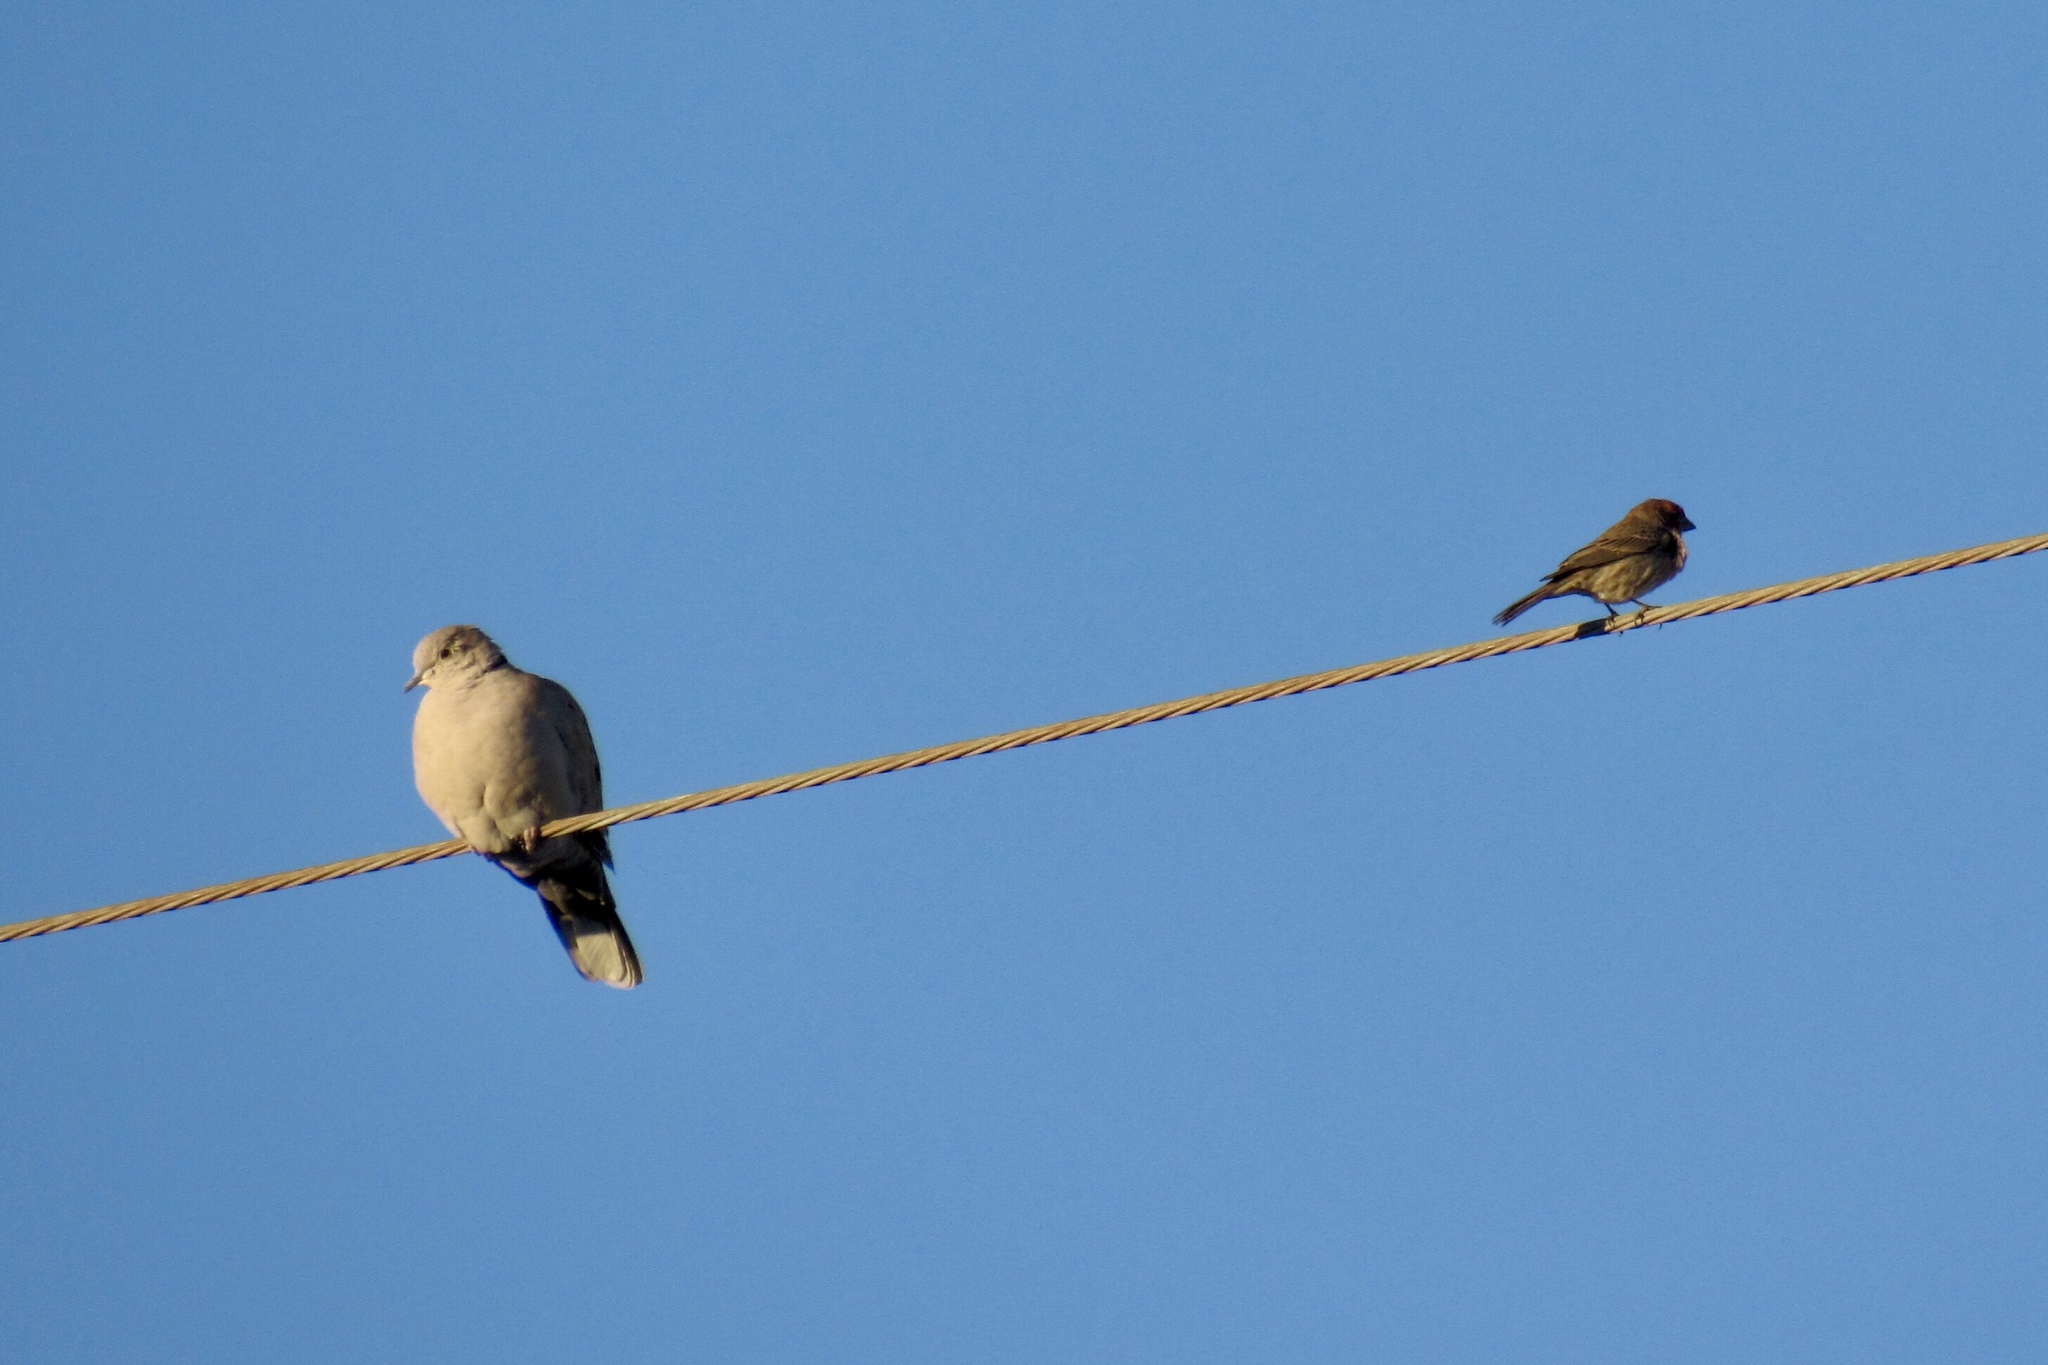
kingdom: Animalia
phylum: Chordata
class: Aves
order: Columbiformes
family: Columbidae
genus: Streptopelia
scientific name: Streptopelia decaocto
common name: Eurasian collared dove
